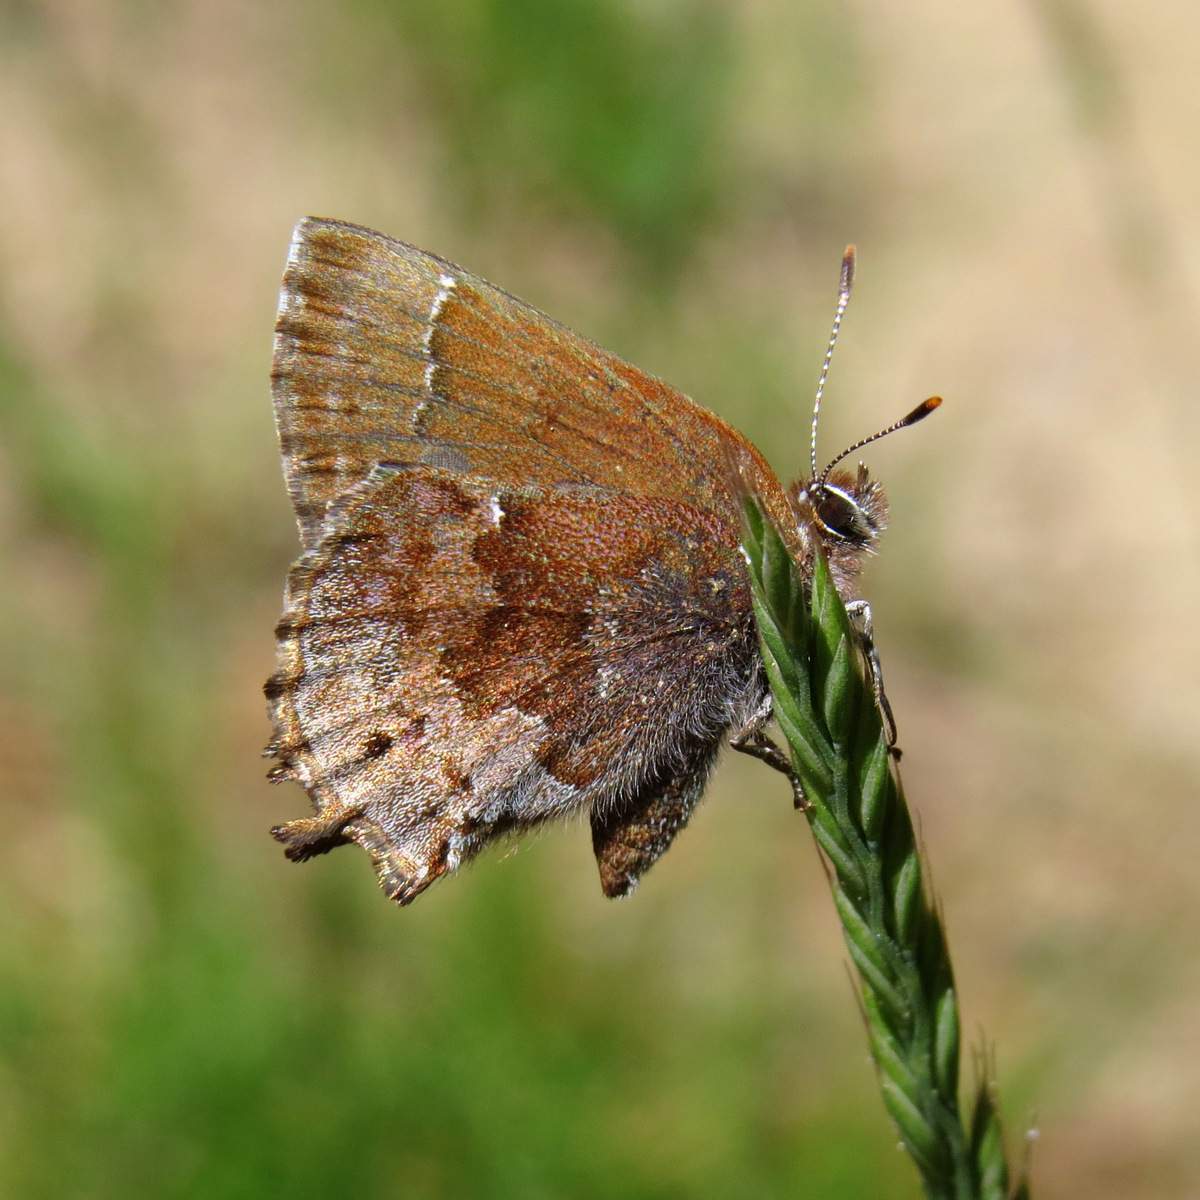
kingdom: Animalia
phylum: Arthropoda
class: Insecta
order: Lepidoptera
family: Lycaenidae
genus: Thecla
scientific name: Thecla irus
